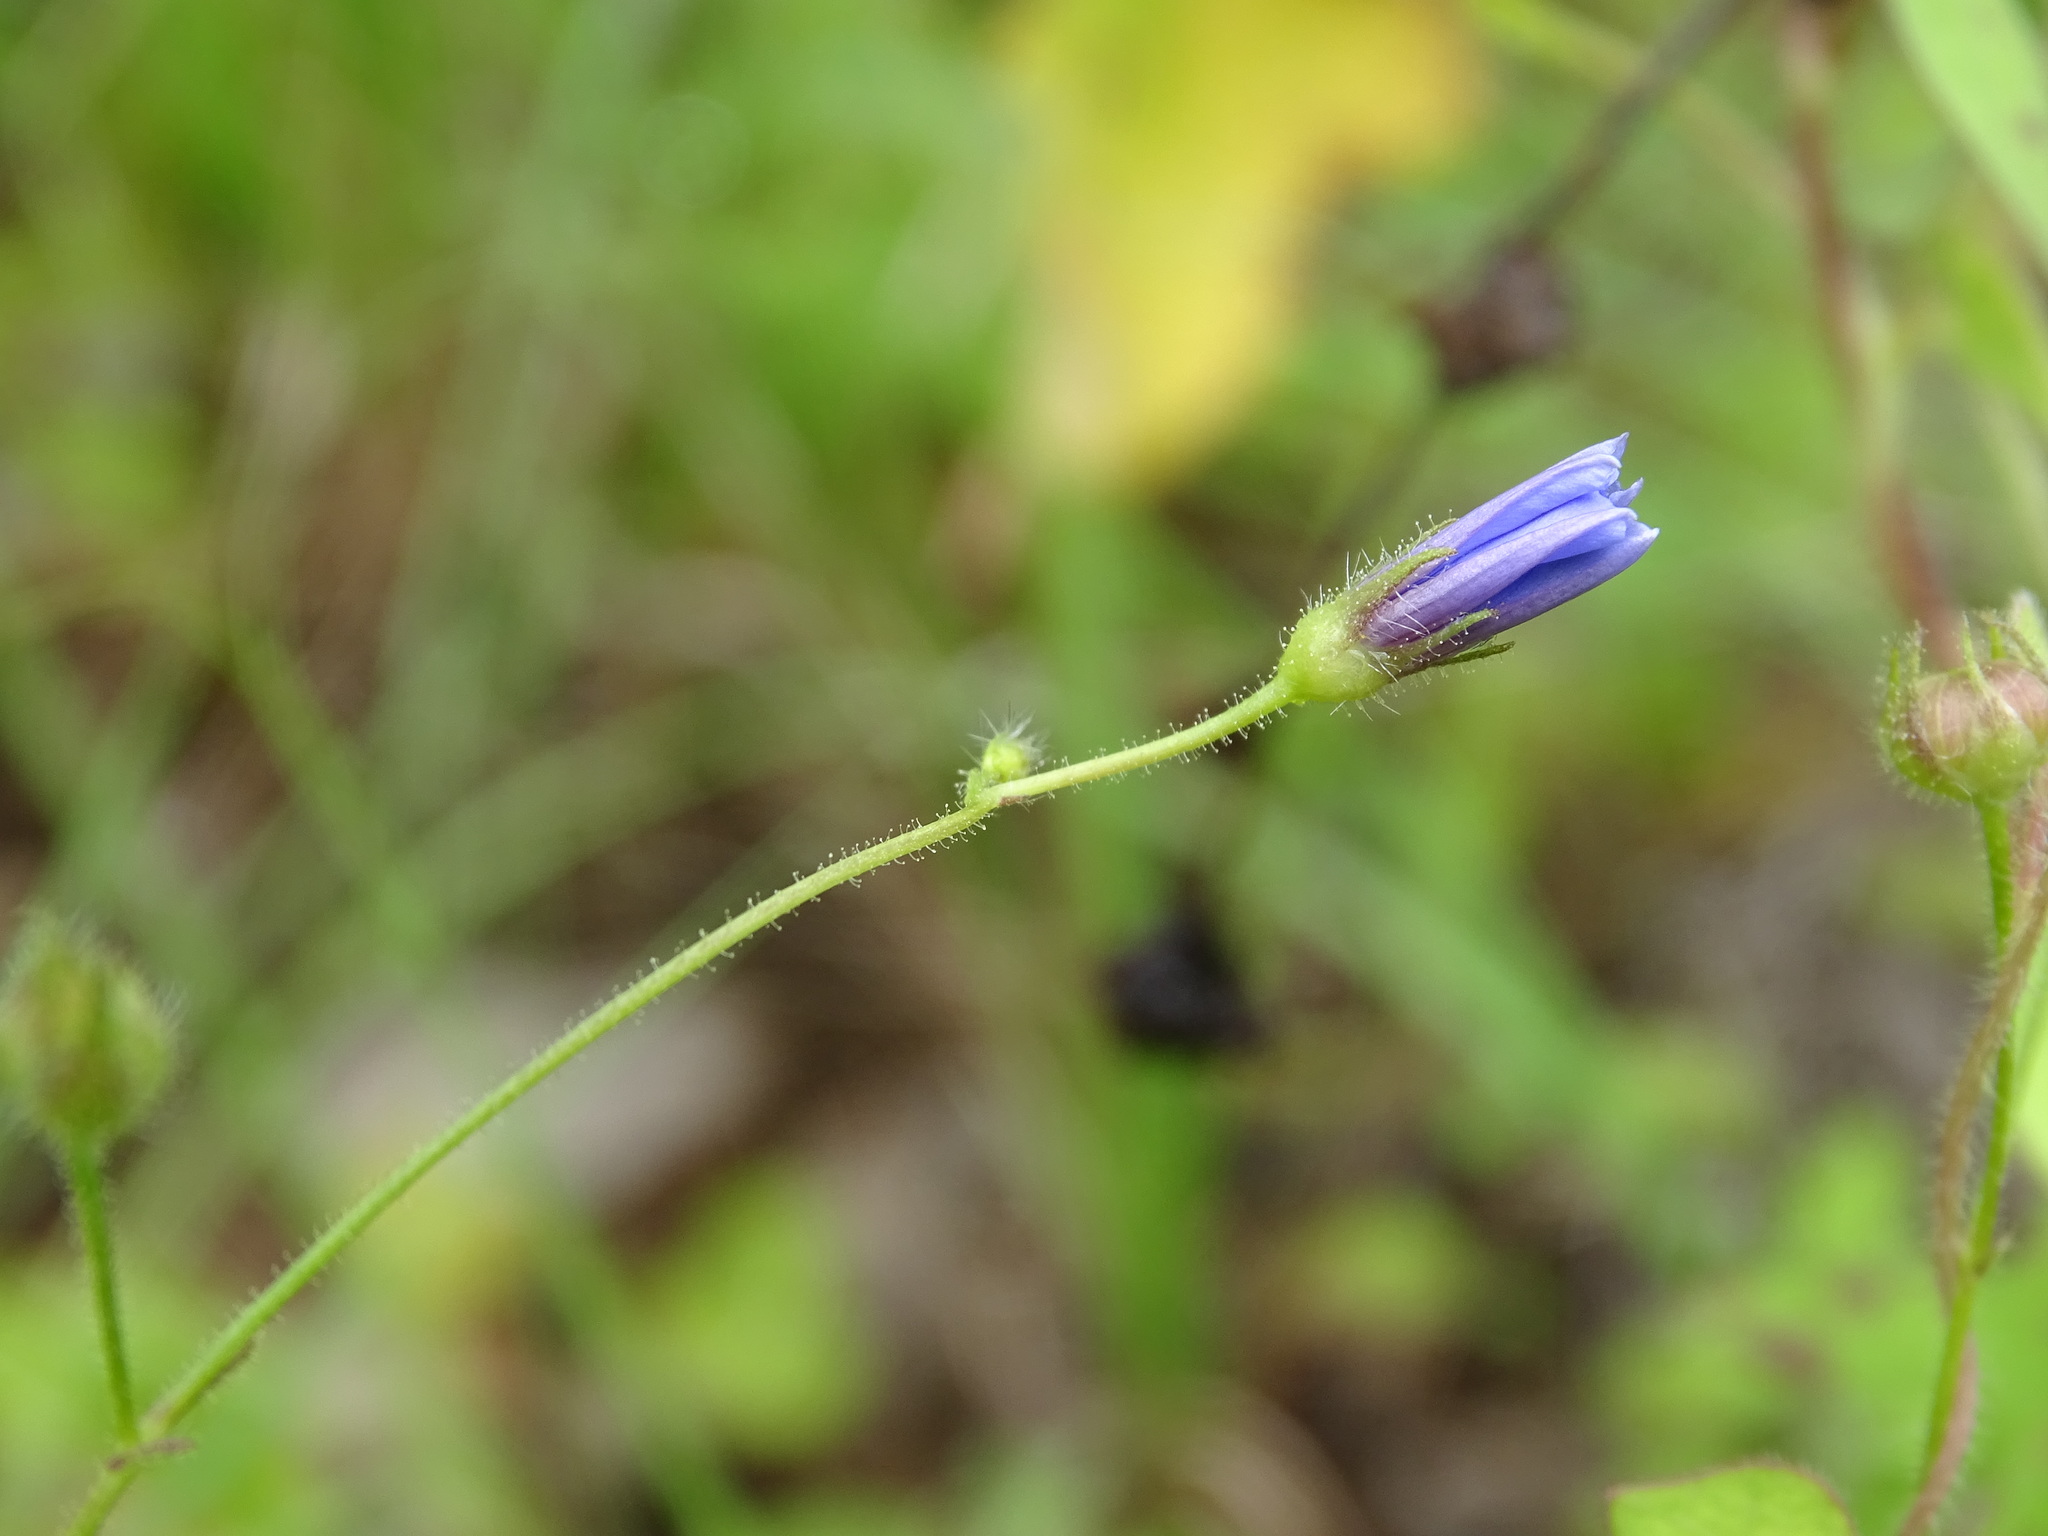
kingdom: Plantae
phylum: Tracheophyta
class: Magnoliopsida
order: Solanales
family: Convolvulaceae
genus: Jacquemontia
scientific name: Jacquemontia evolvuloides
